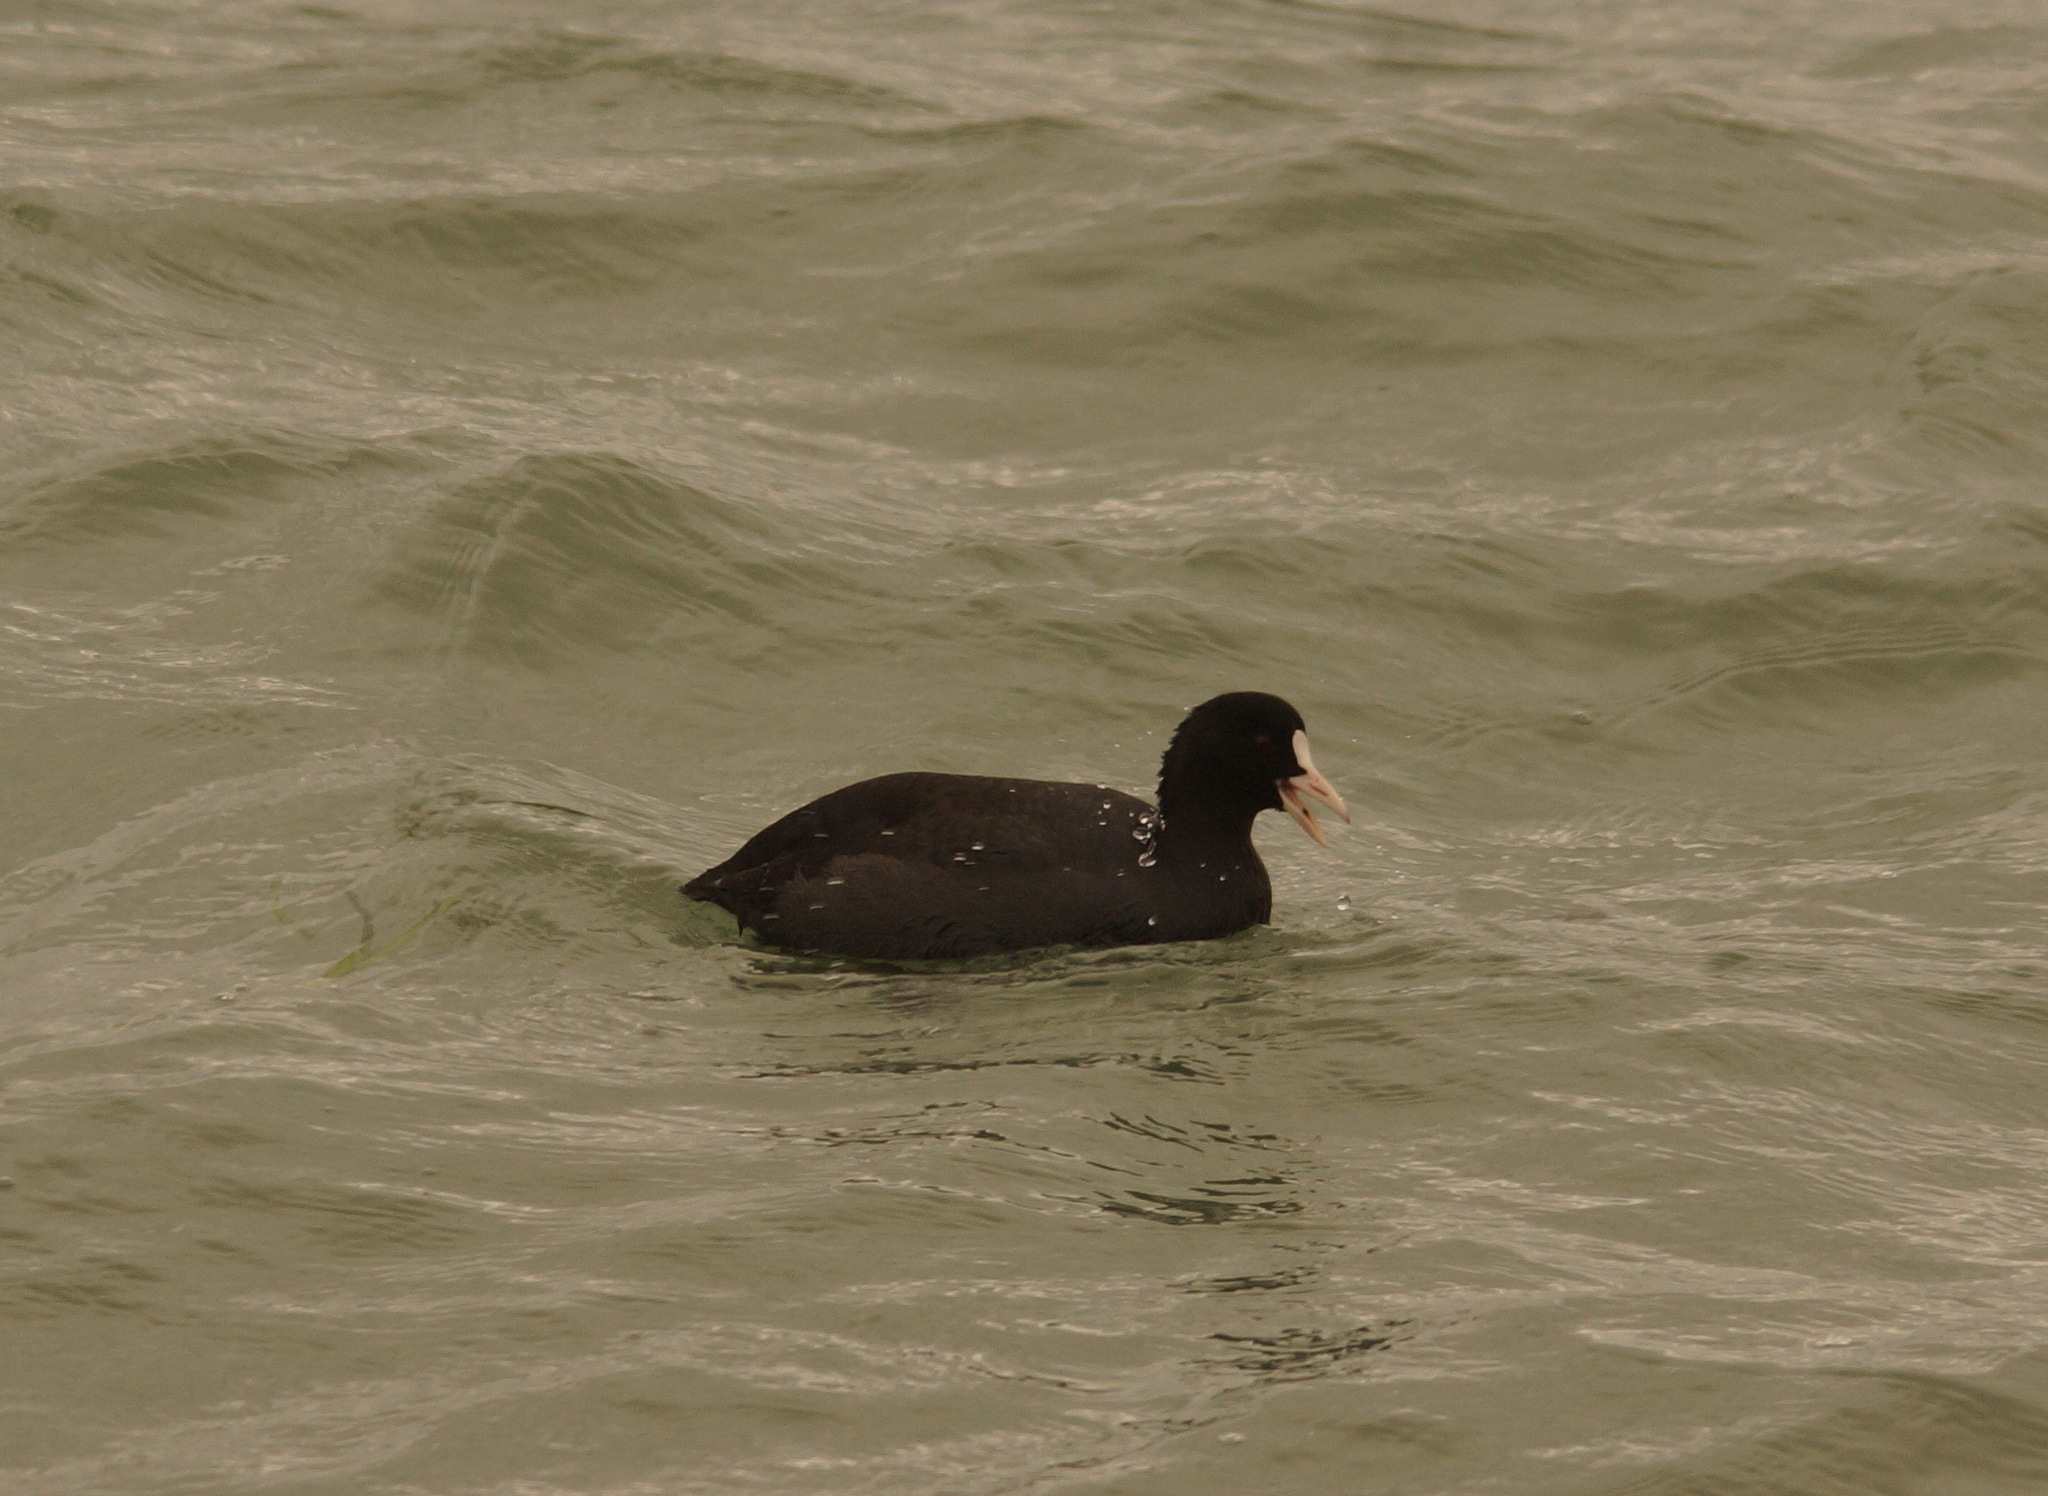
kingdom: Animalia
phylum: Chordata
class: Aves
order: Gruiformes
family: Rallidae
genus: Fulica
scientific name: Fulica atra
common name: Eurasian coot
